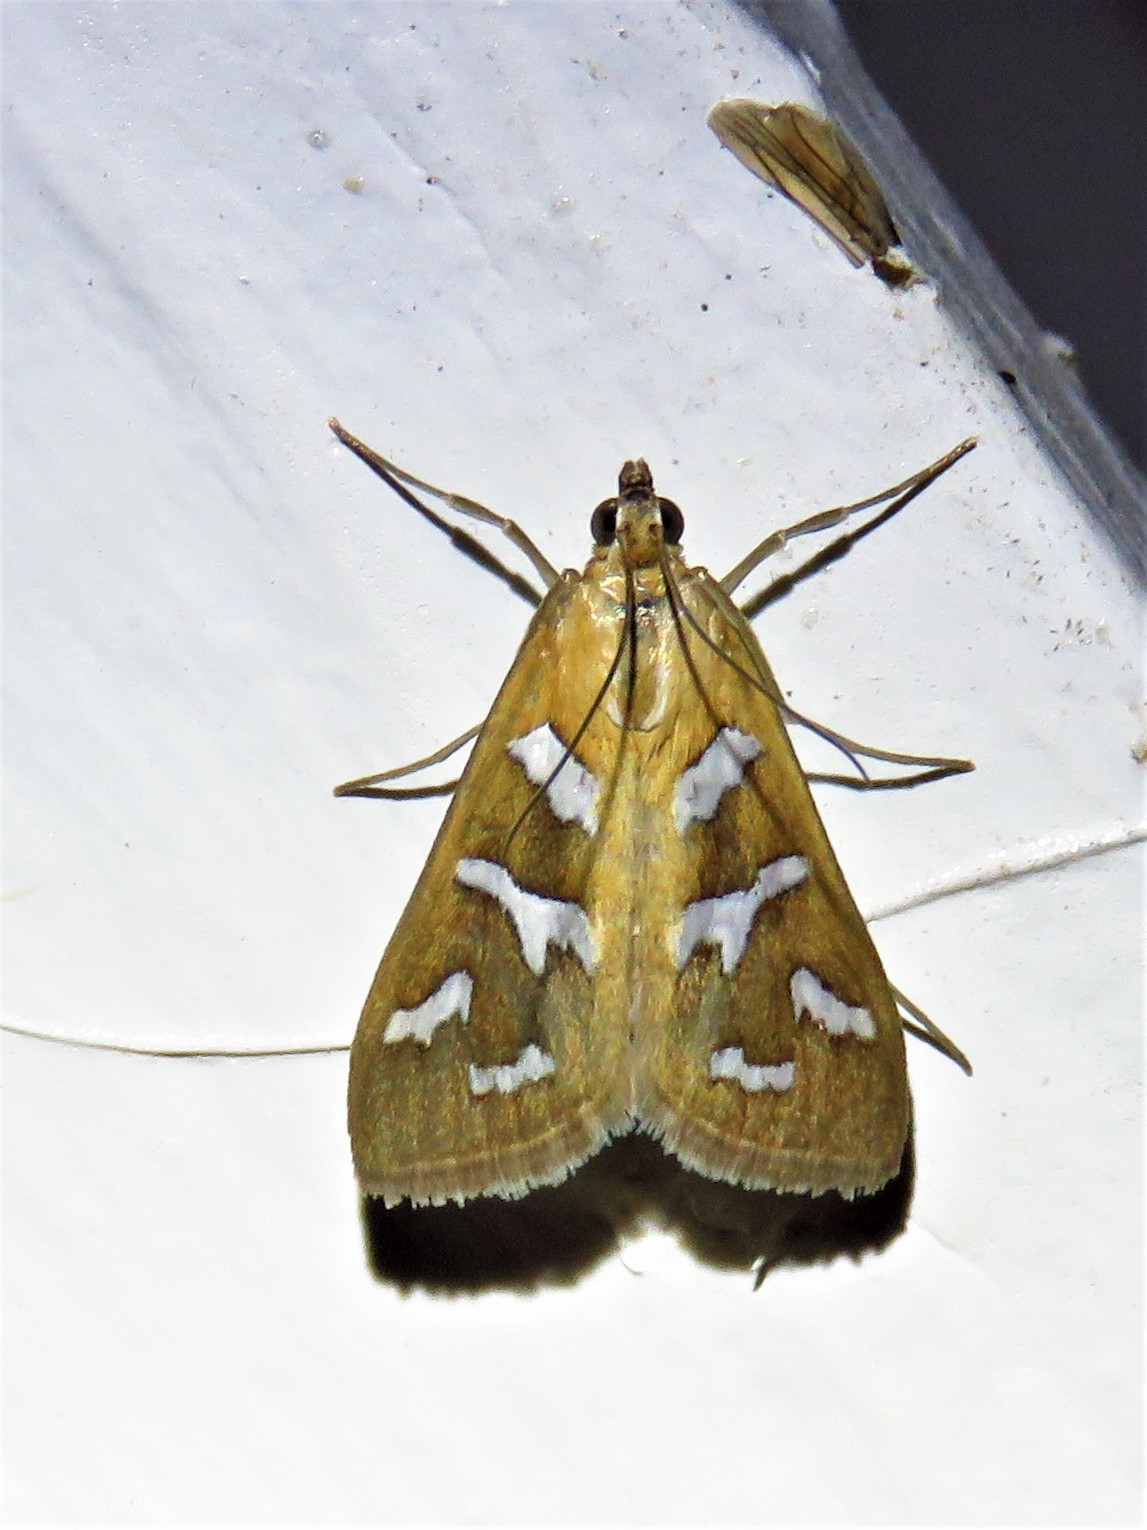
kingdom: Animalia
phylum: Arthropoda
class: Insecta
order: Lepidoptera
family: Crambidae
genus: Diastictis
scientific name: Diastictis fracturalis
